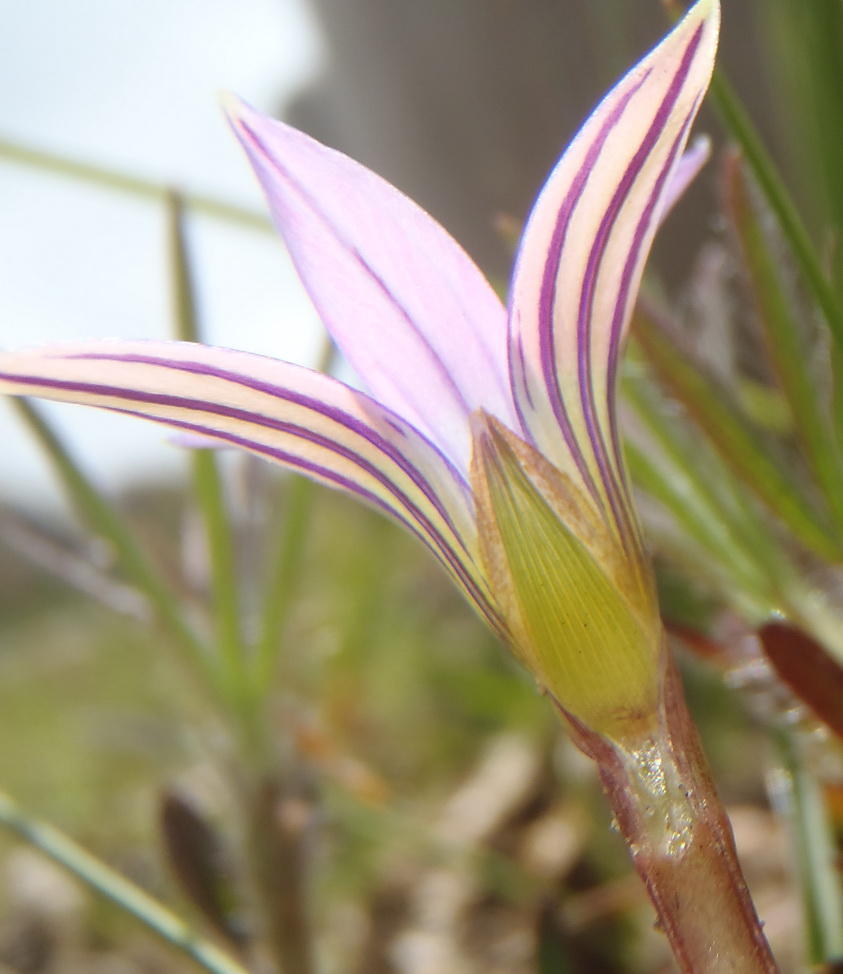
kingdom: Plantae
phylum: Tracheophyta
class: Liliopsida
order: Asparagales
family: Iridaceae
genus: Romulea
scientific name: Romulea rosea
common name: Oniongrass
